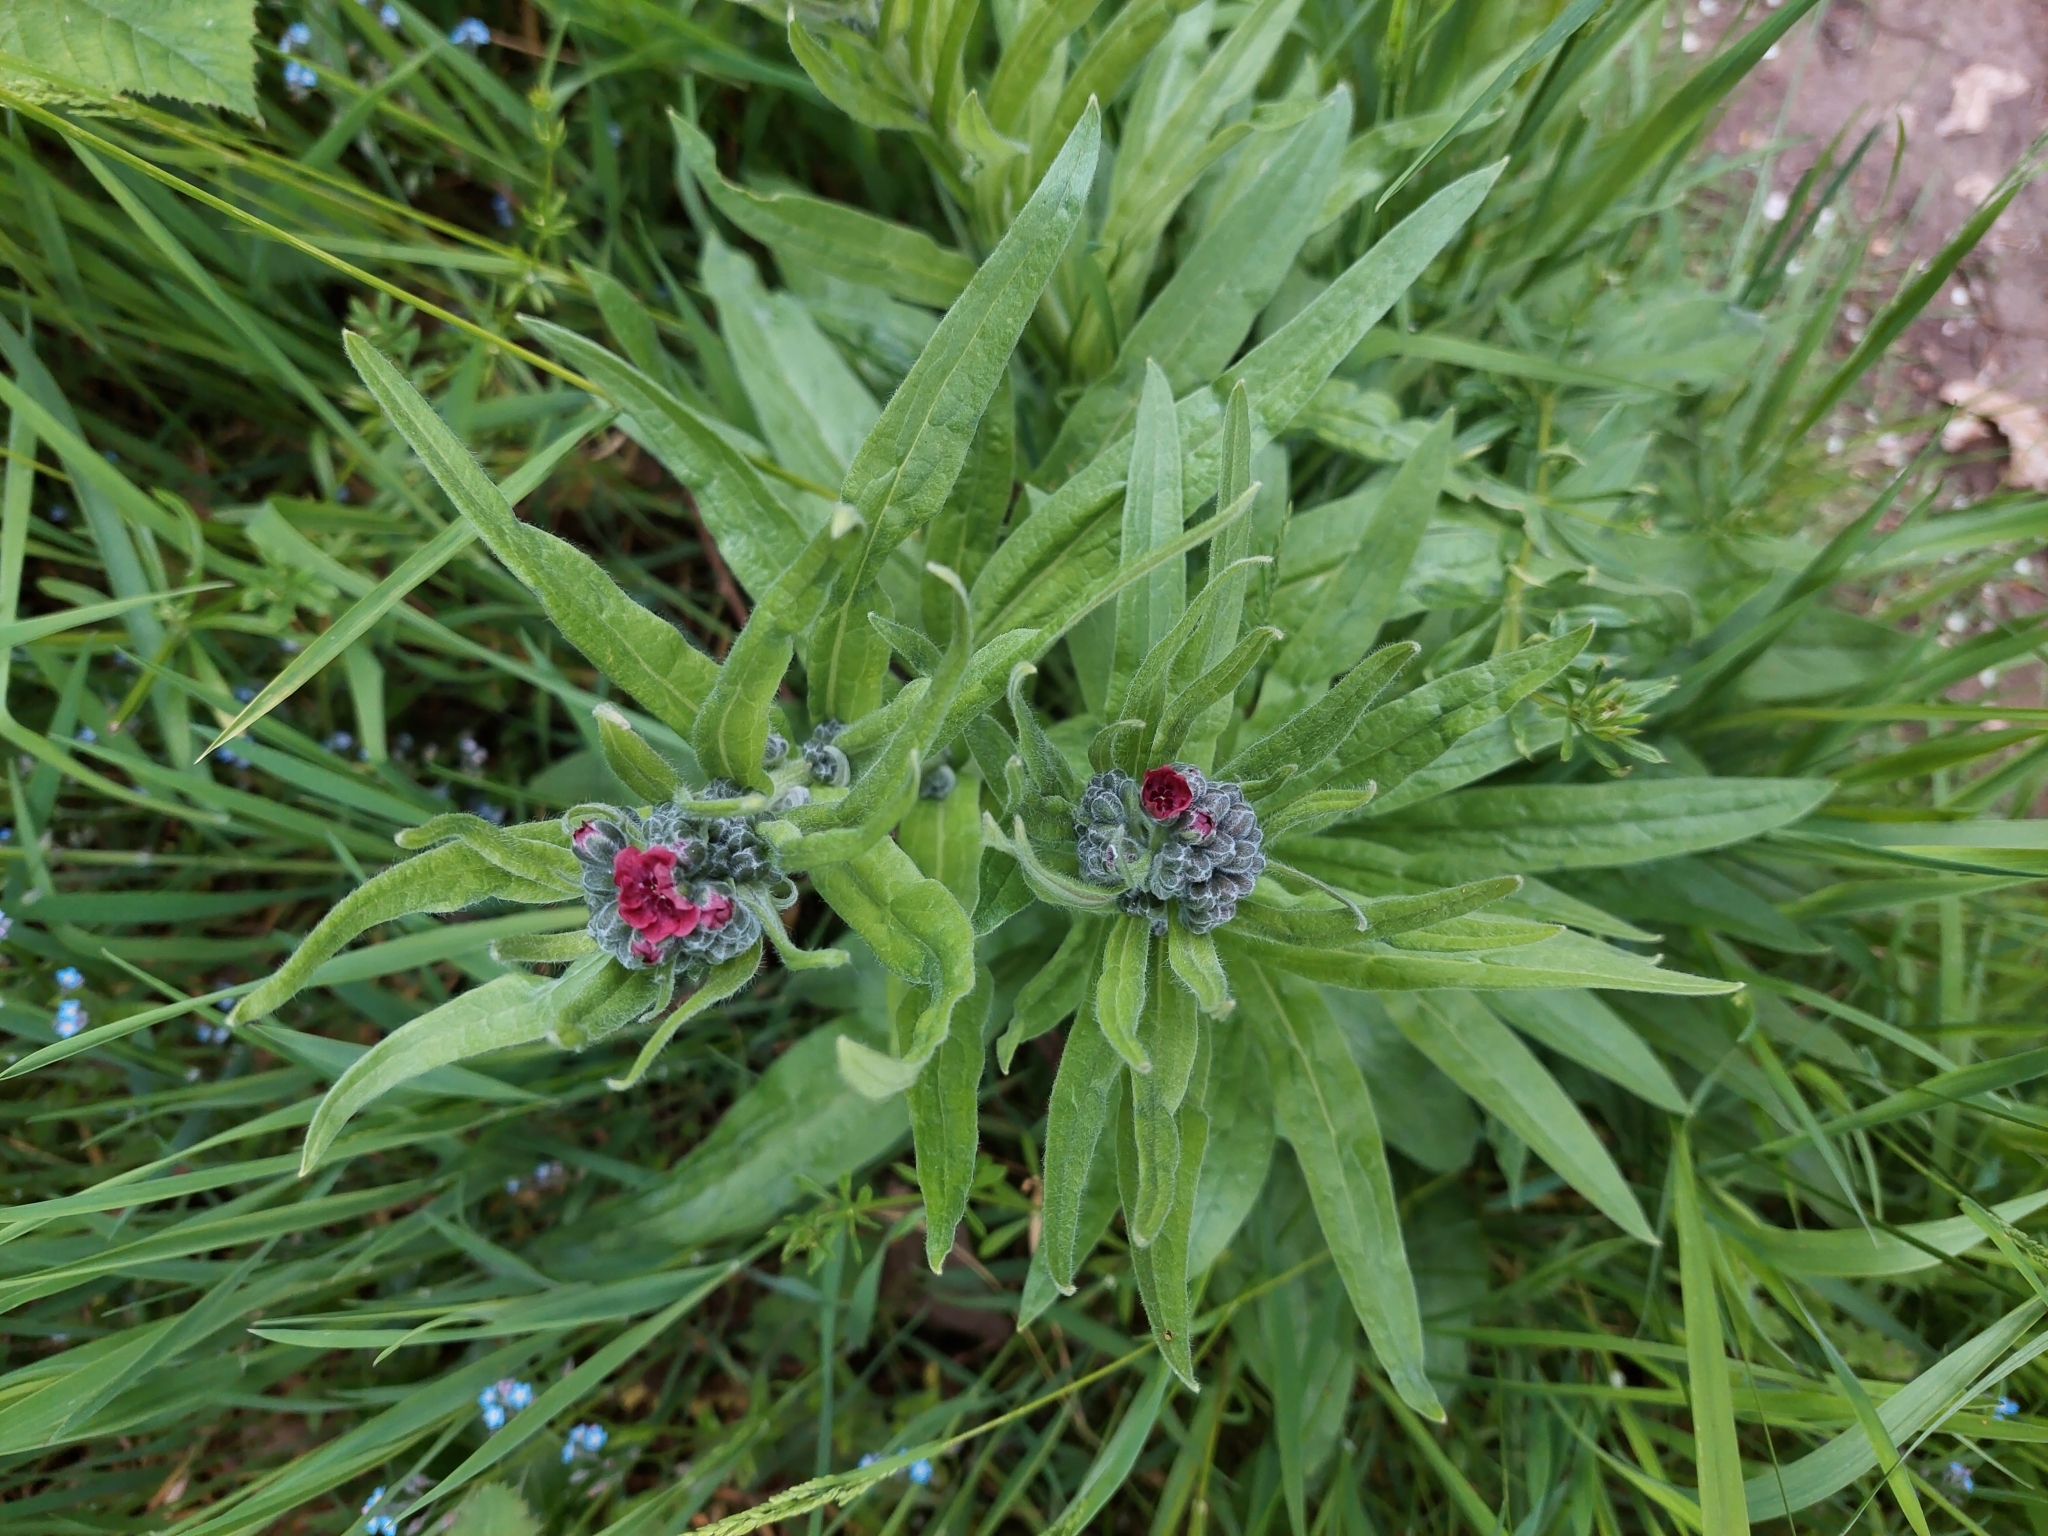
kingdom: Plantae
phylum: Tracheophyta
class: Magnoliopsida
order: Boraginales
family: Boraginaceae
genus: Cynoglossum
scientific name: Cynoglossum officinale
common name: Hound's-tongue
